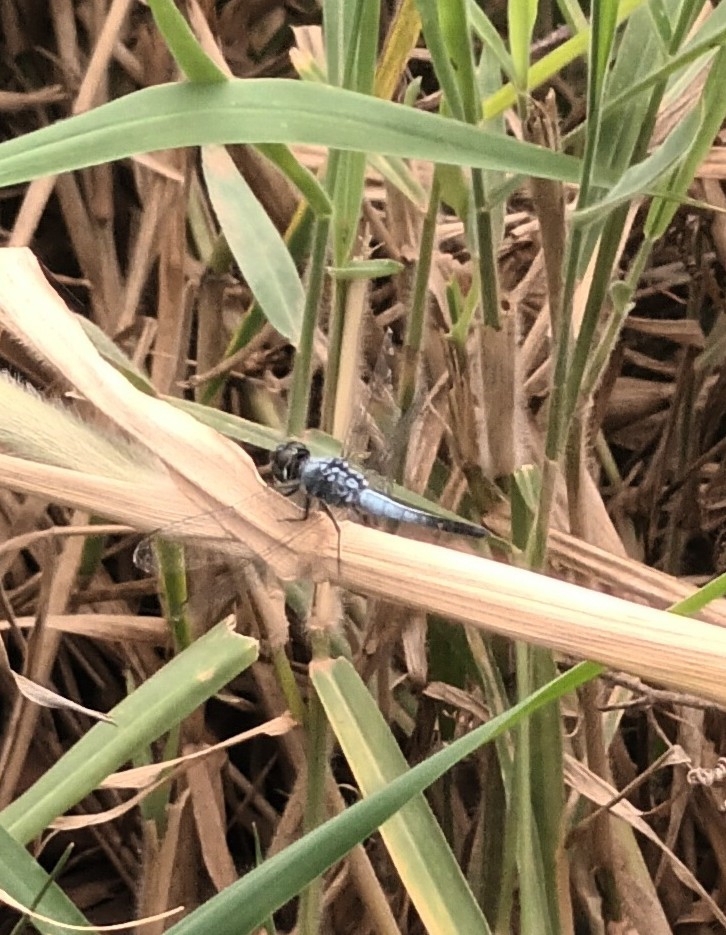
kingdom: Animalia
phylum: Arthropoda
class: Insecta
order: Odonata
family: Libellulidae
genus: Brachydiplax
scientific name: Brachydiplax sobrina
